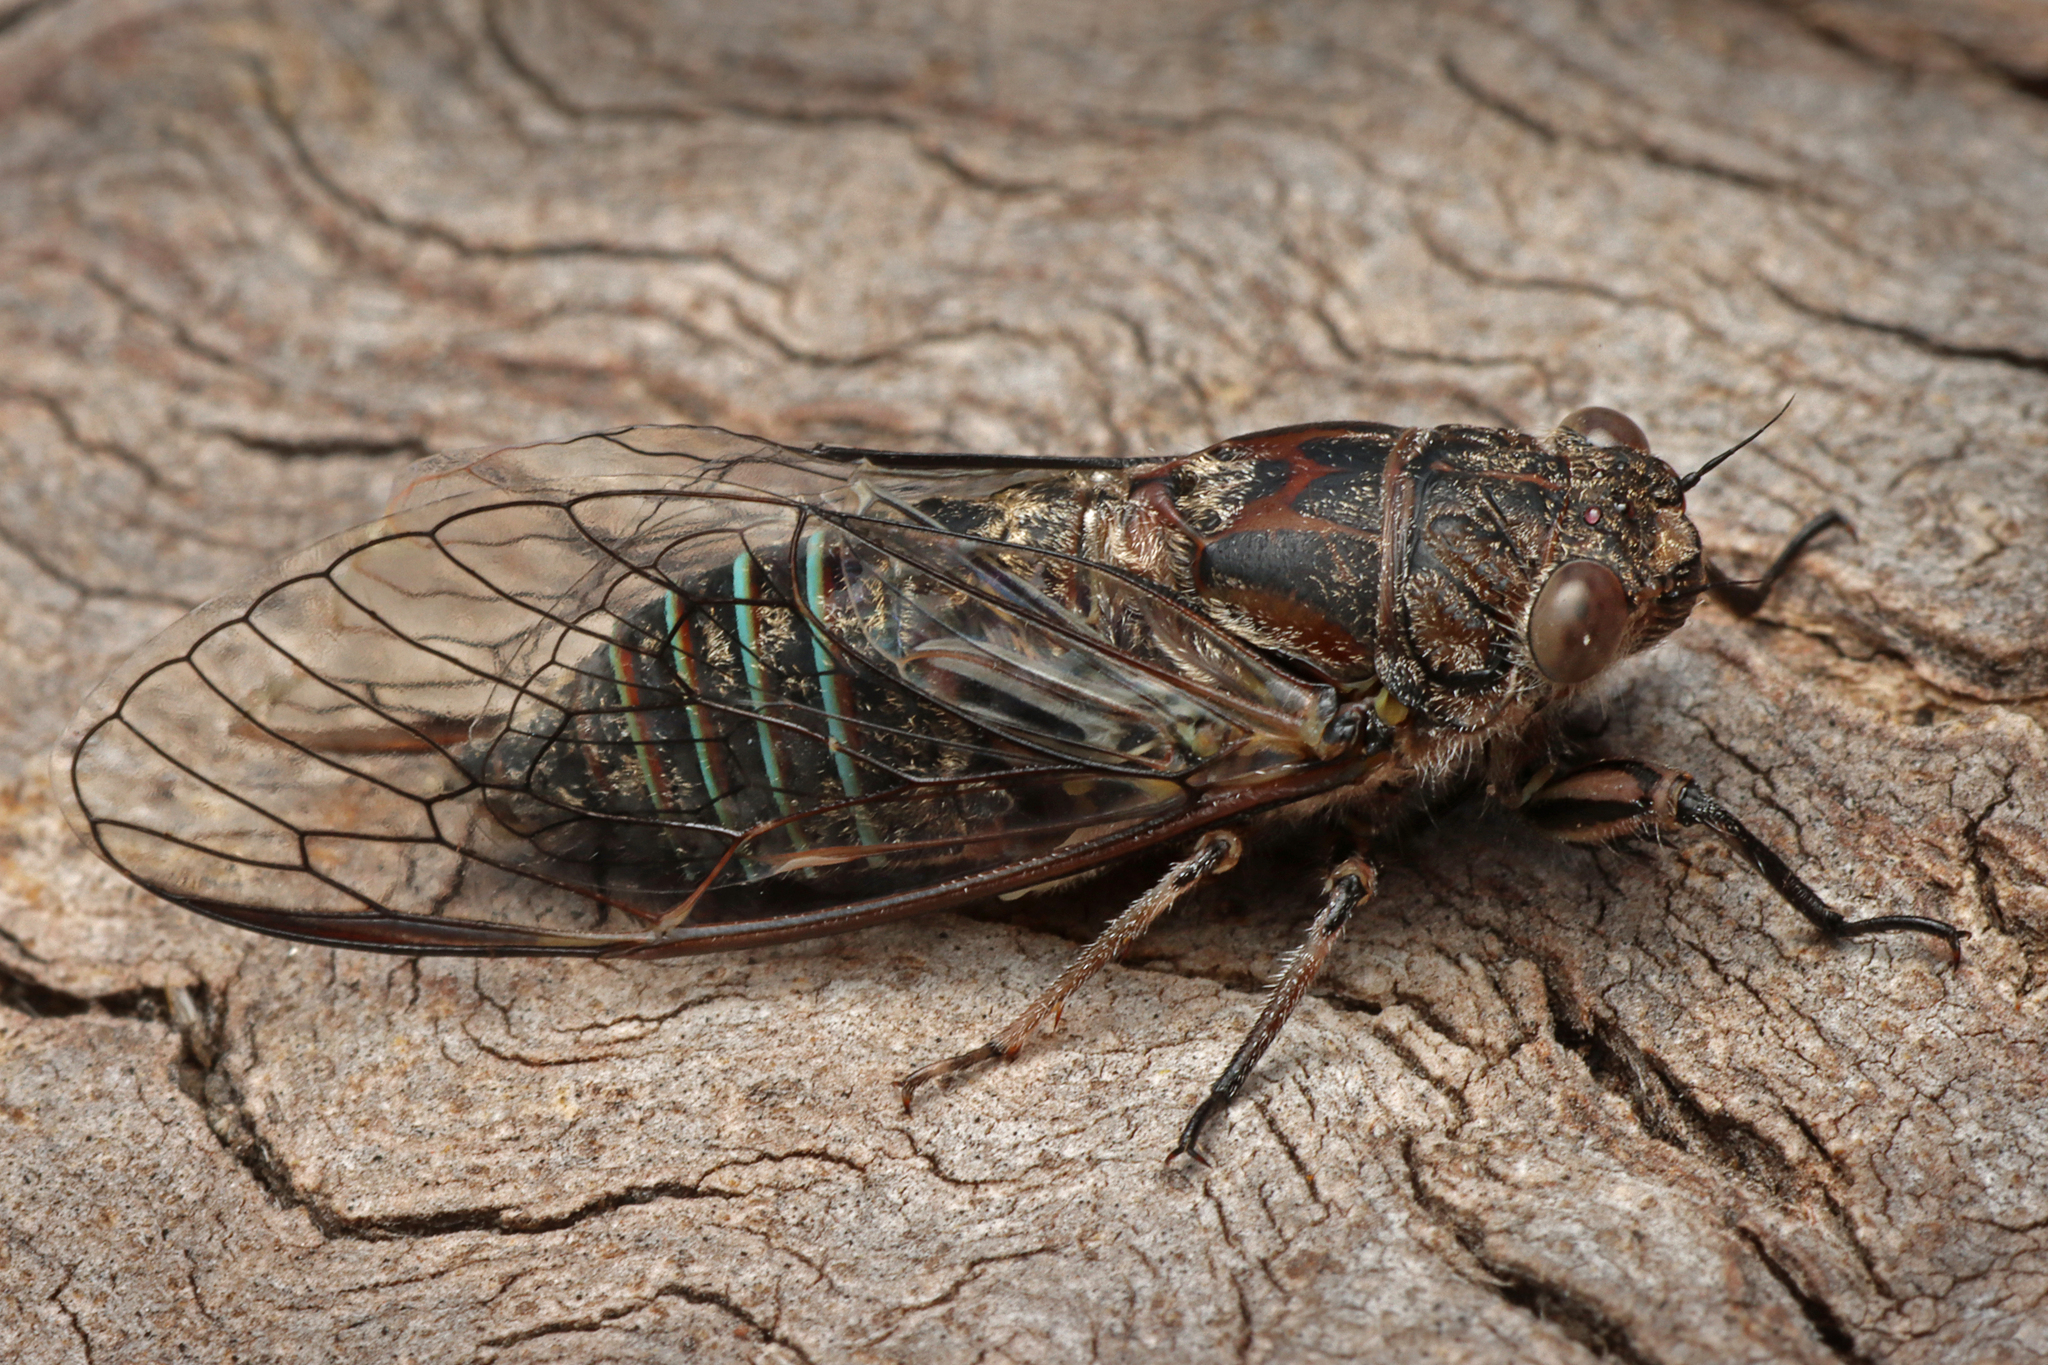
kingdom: Animalia
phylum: Arthropoda
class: Insecta
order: Hemiptera
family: Cicadidae
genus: Physeema
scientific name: Physeema labyrinthica
